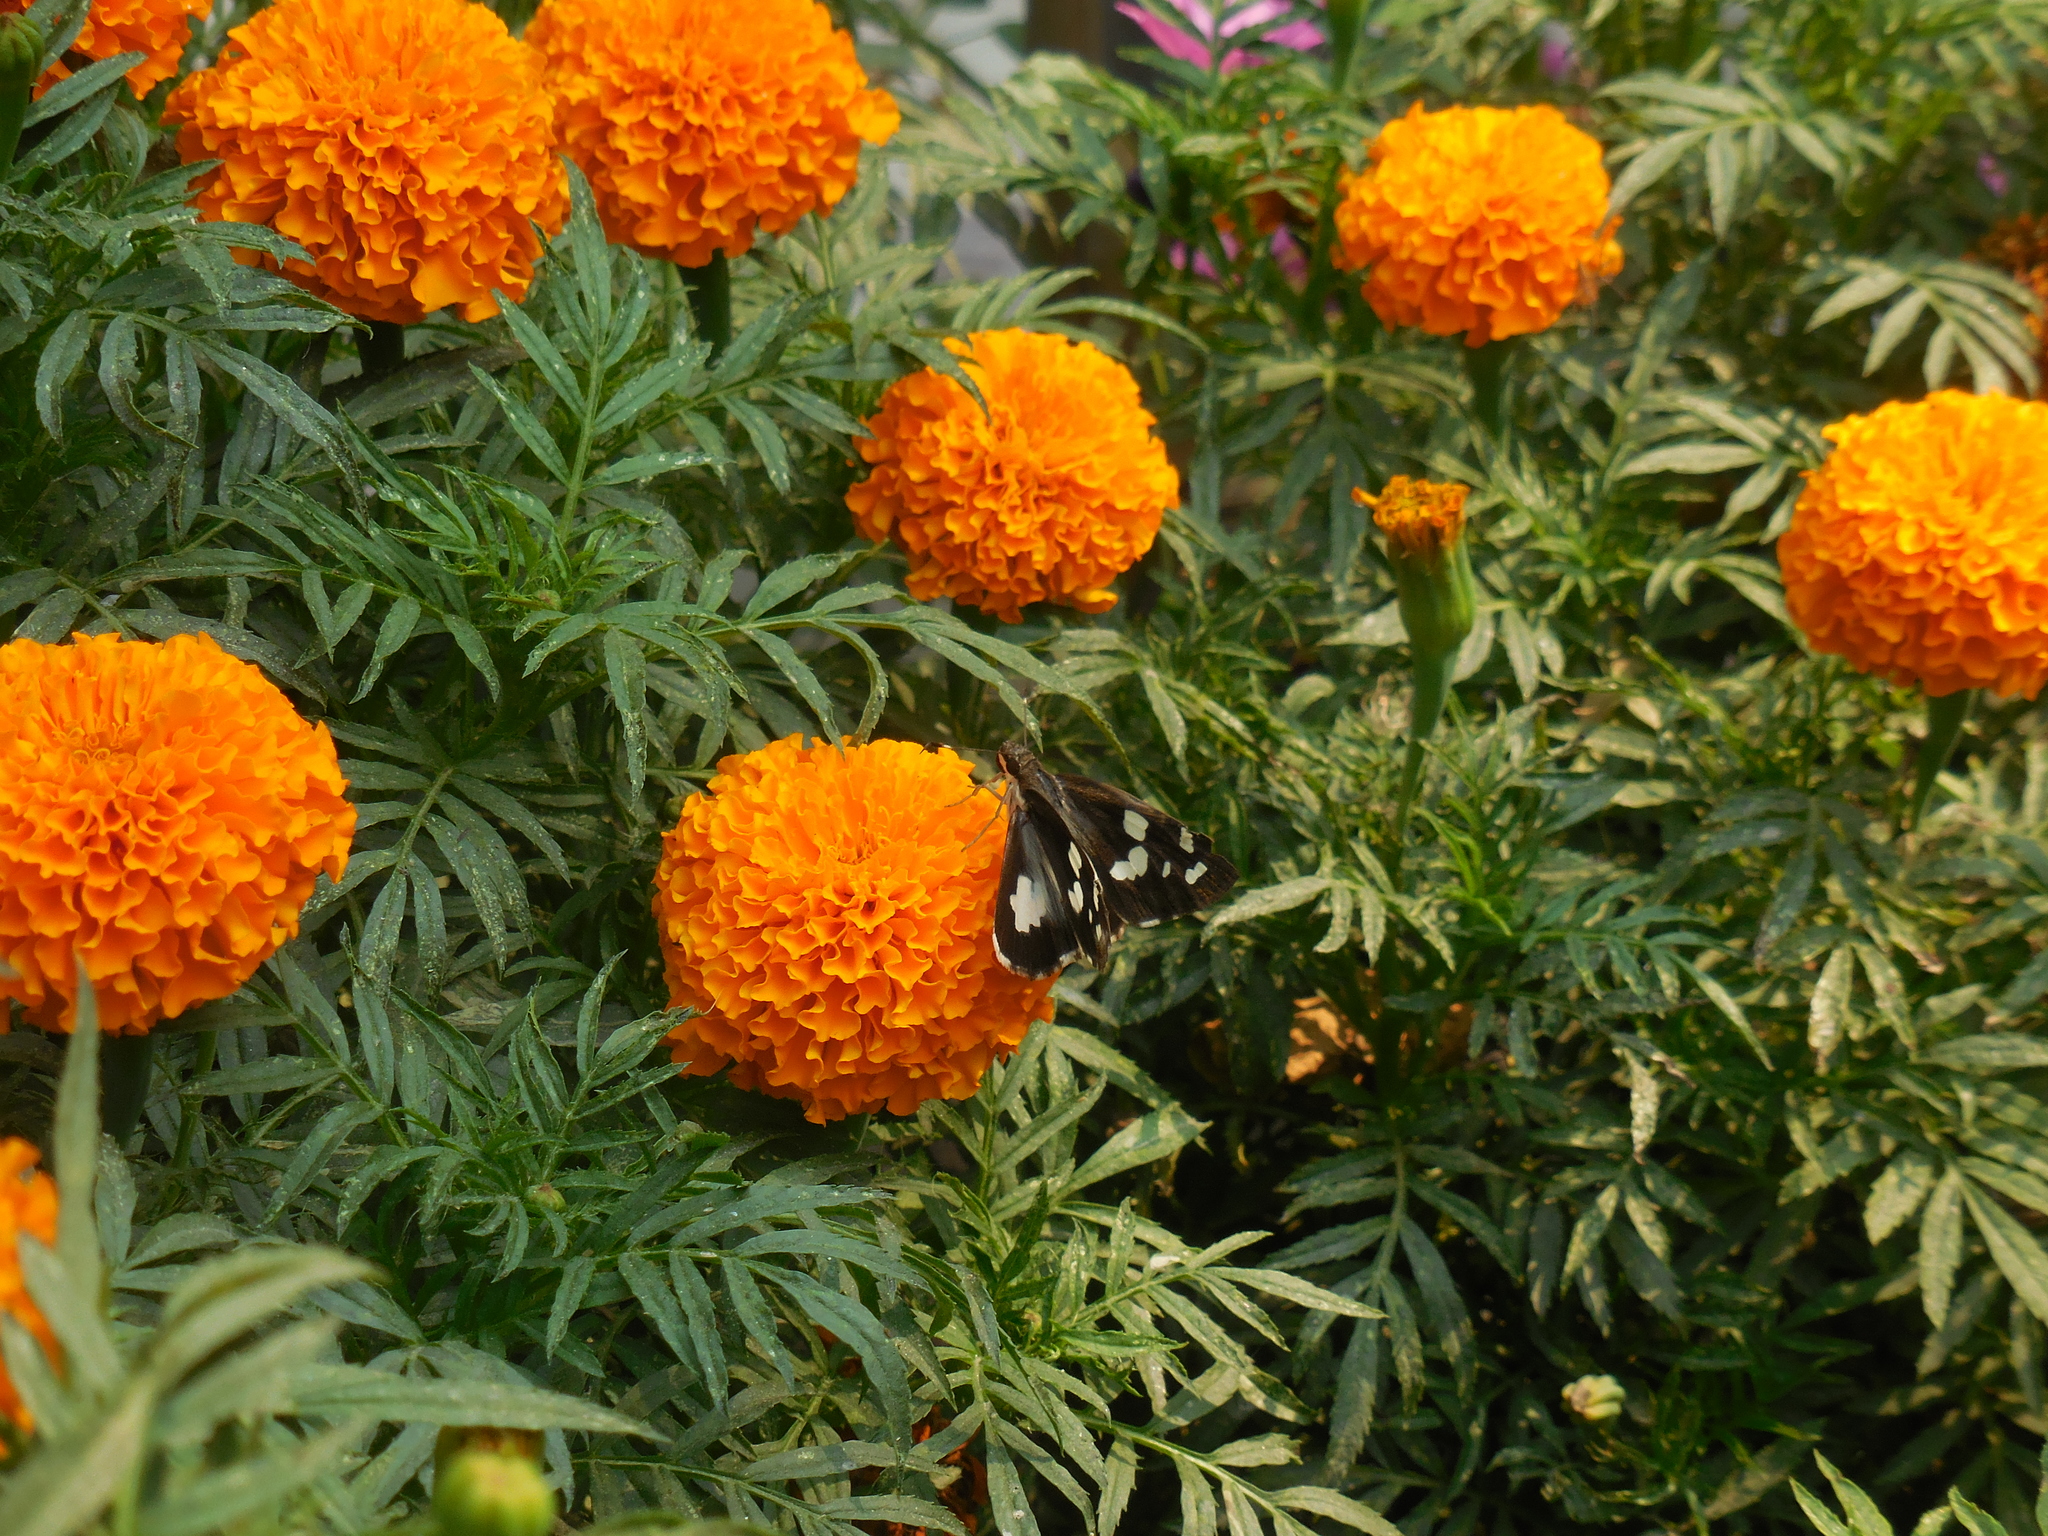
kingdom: Animalia
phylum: Arthropoda
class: Insecta
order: Lepidoptera
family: Hesperiidae
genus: Udaspes
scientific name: Udaspes folus
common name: Grass demon
